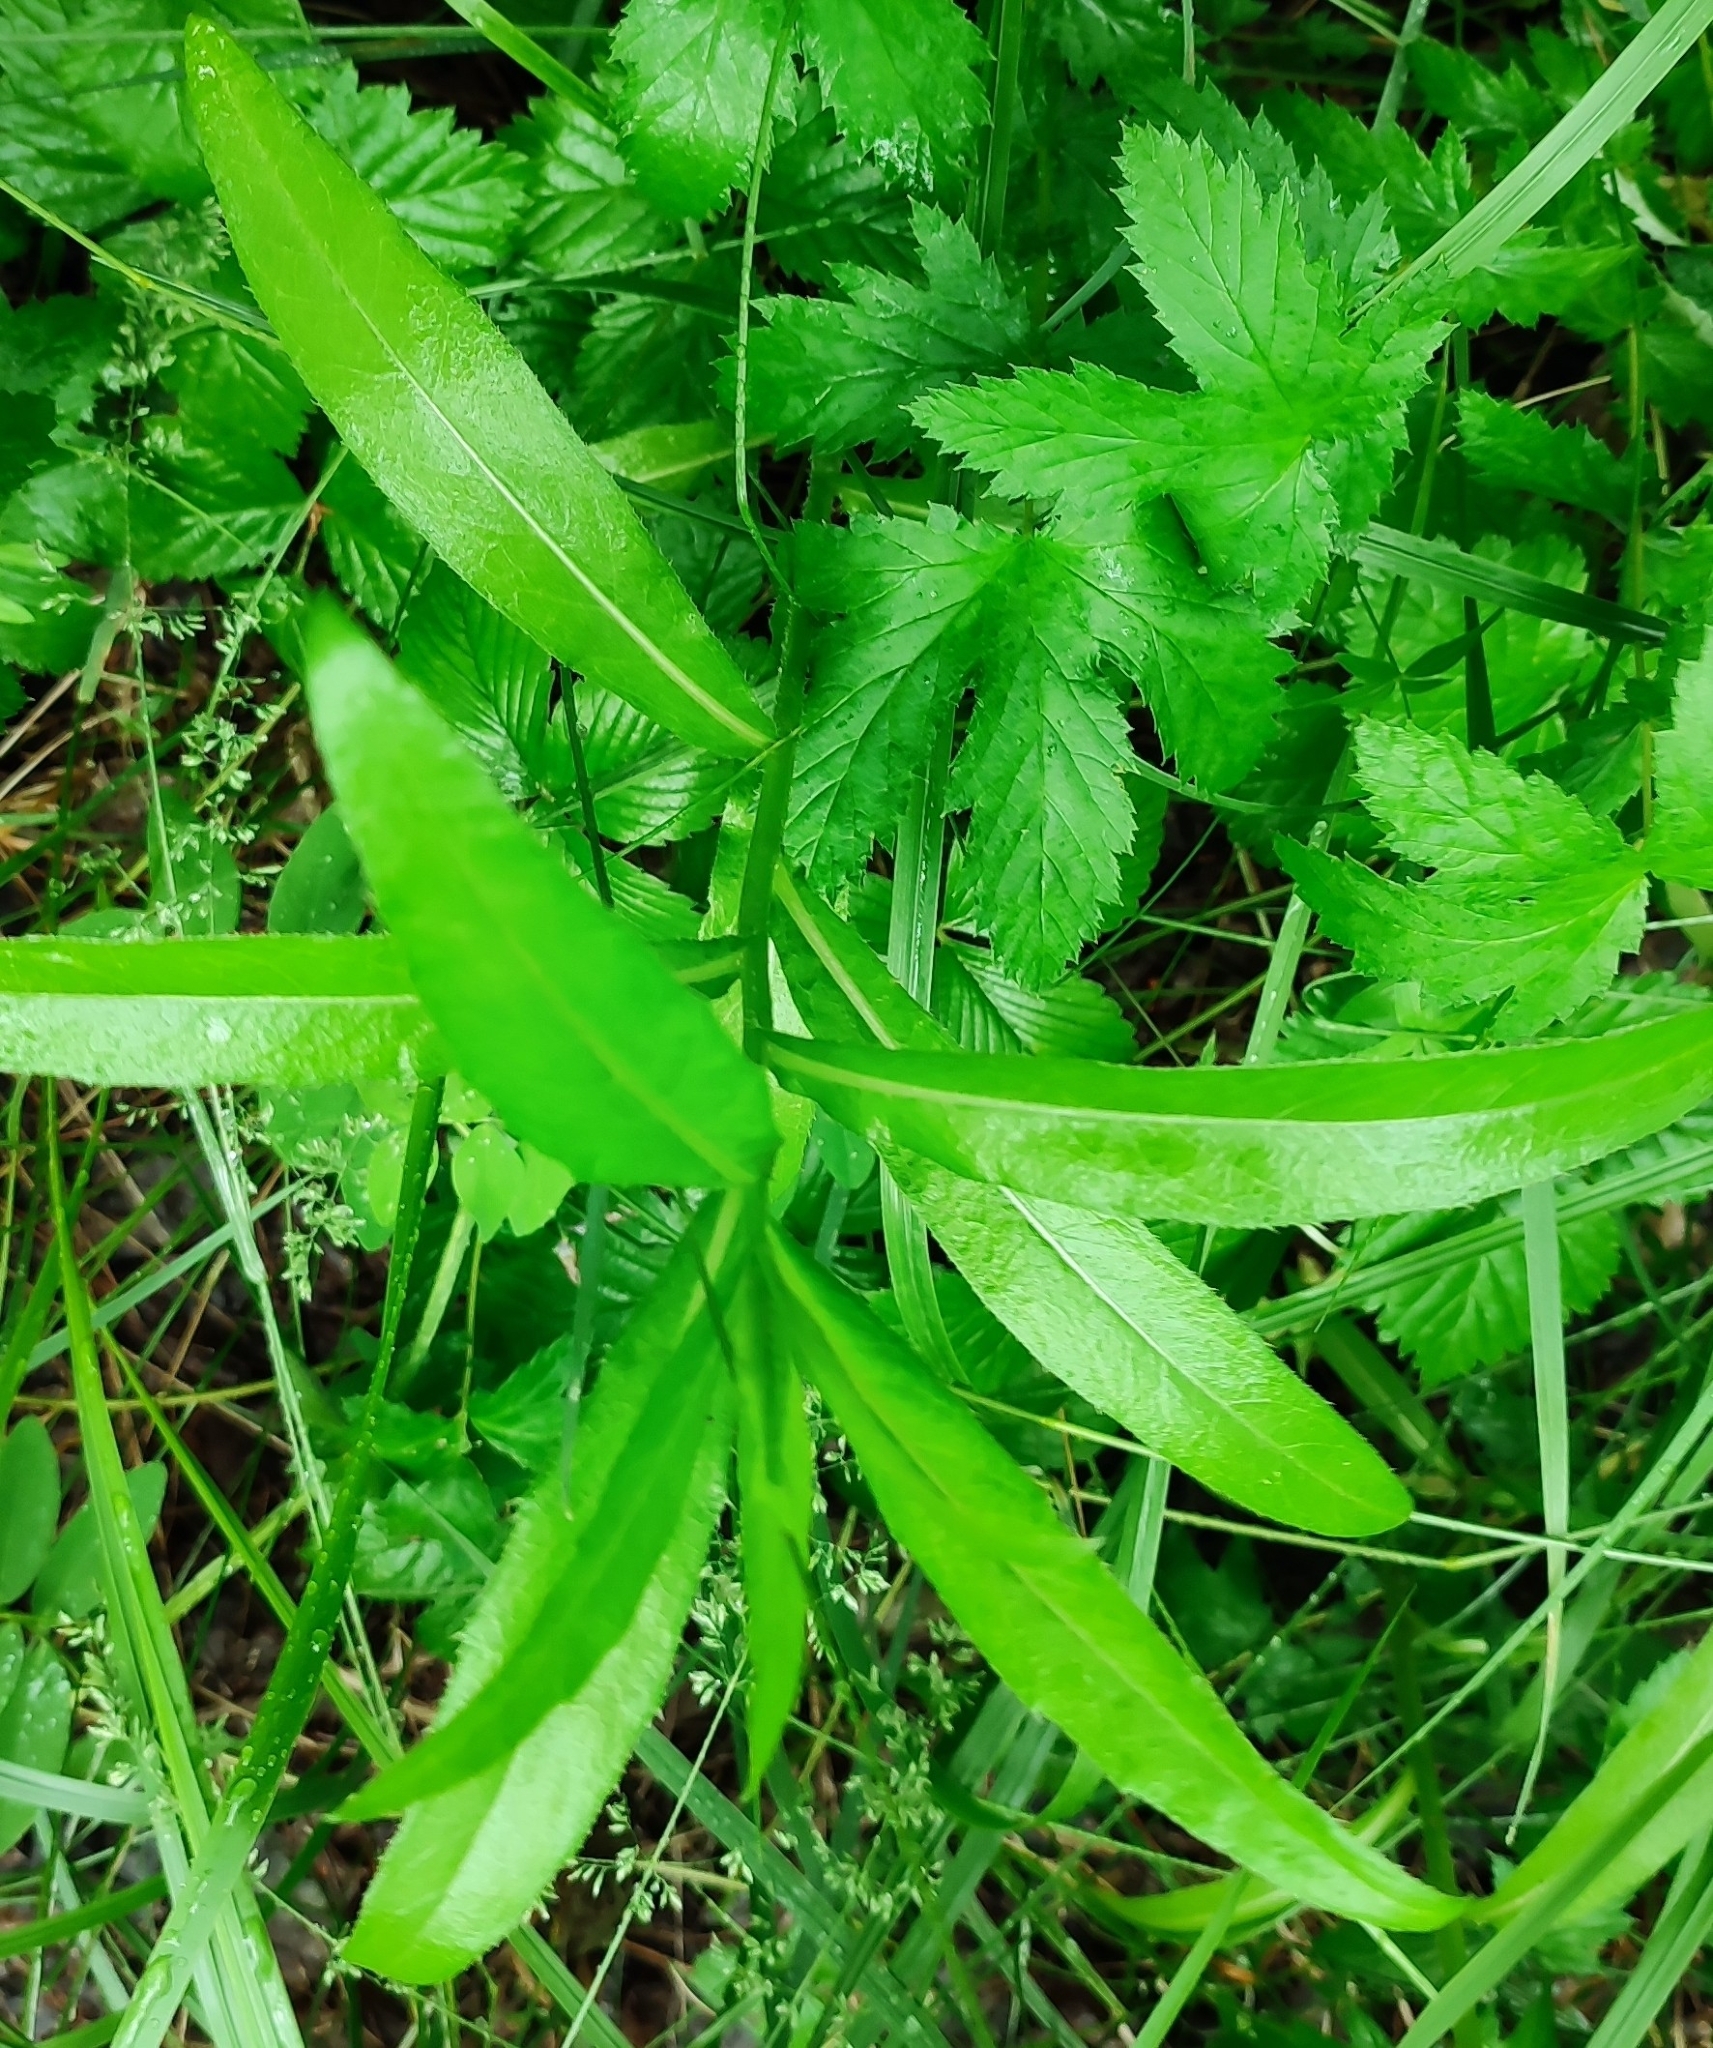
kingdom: Plantae
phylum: Tracheophyta
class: Magnoliopsida
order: Asterales
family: Asteraceae
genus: Cirsium
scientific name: Cirsium arvense
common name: Creeping thistle
